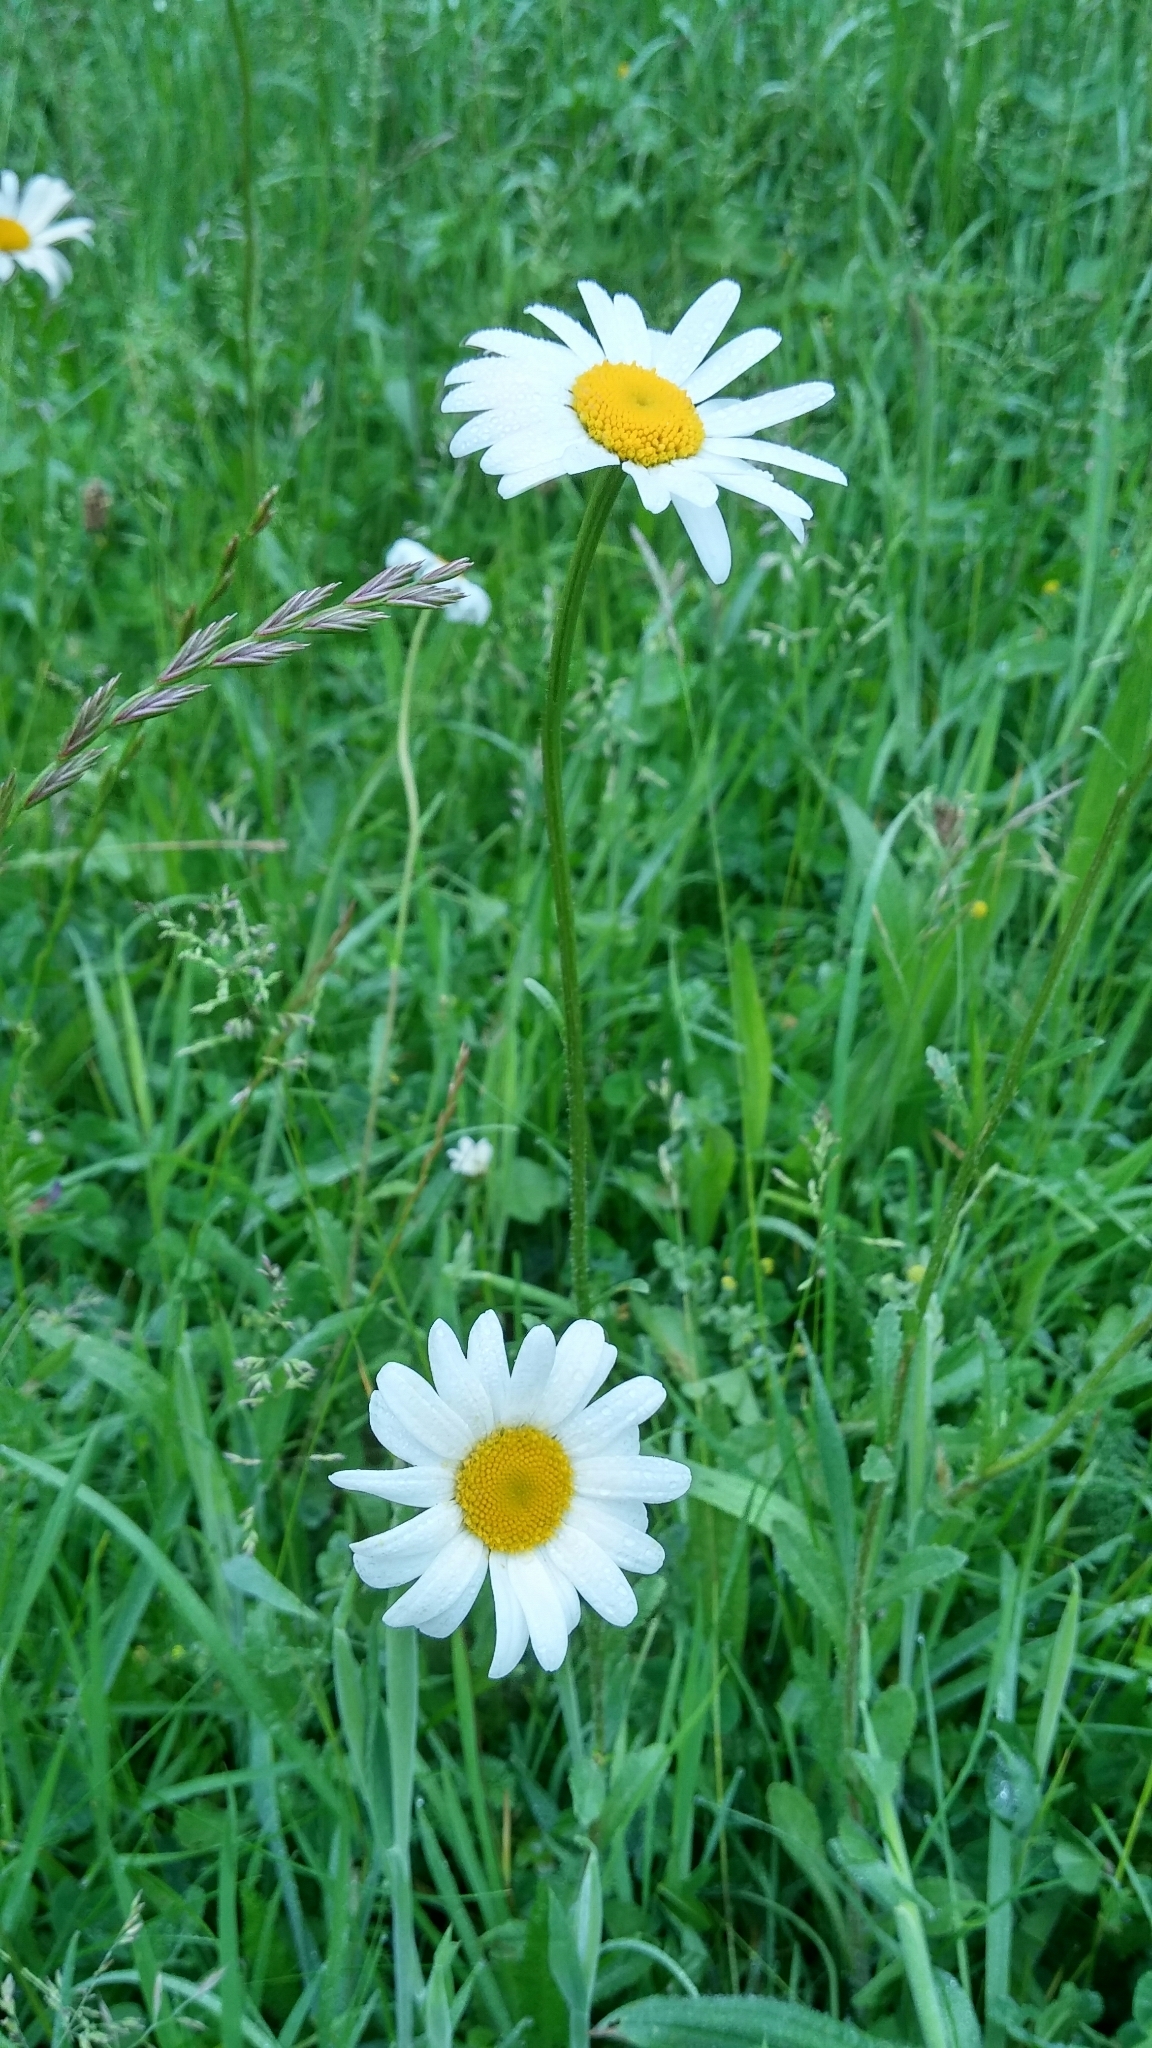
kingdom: Plantae
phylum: Tracheophyta
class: Magnoliopsida
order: Asterales
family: Asteraceae
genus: Leucanthemum
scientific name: Leucanthemum vulgare
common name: Oxeye daisy
